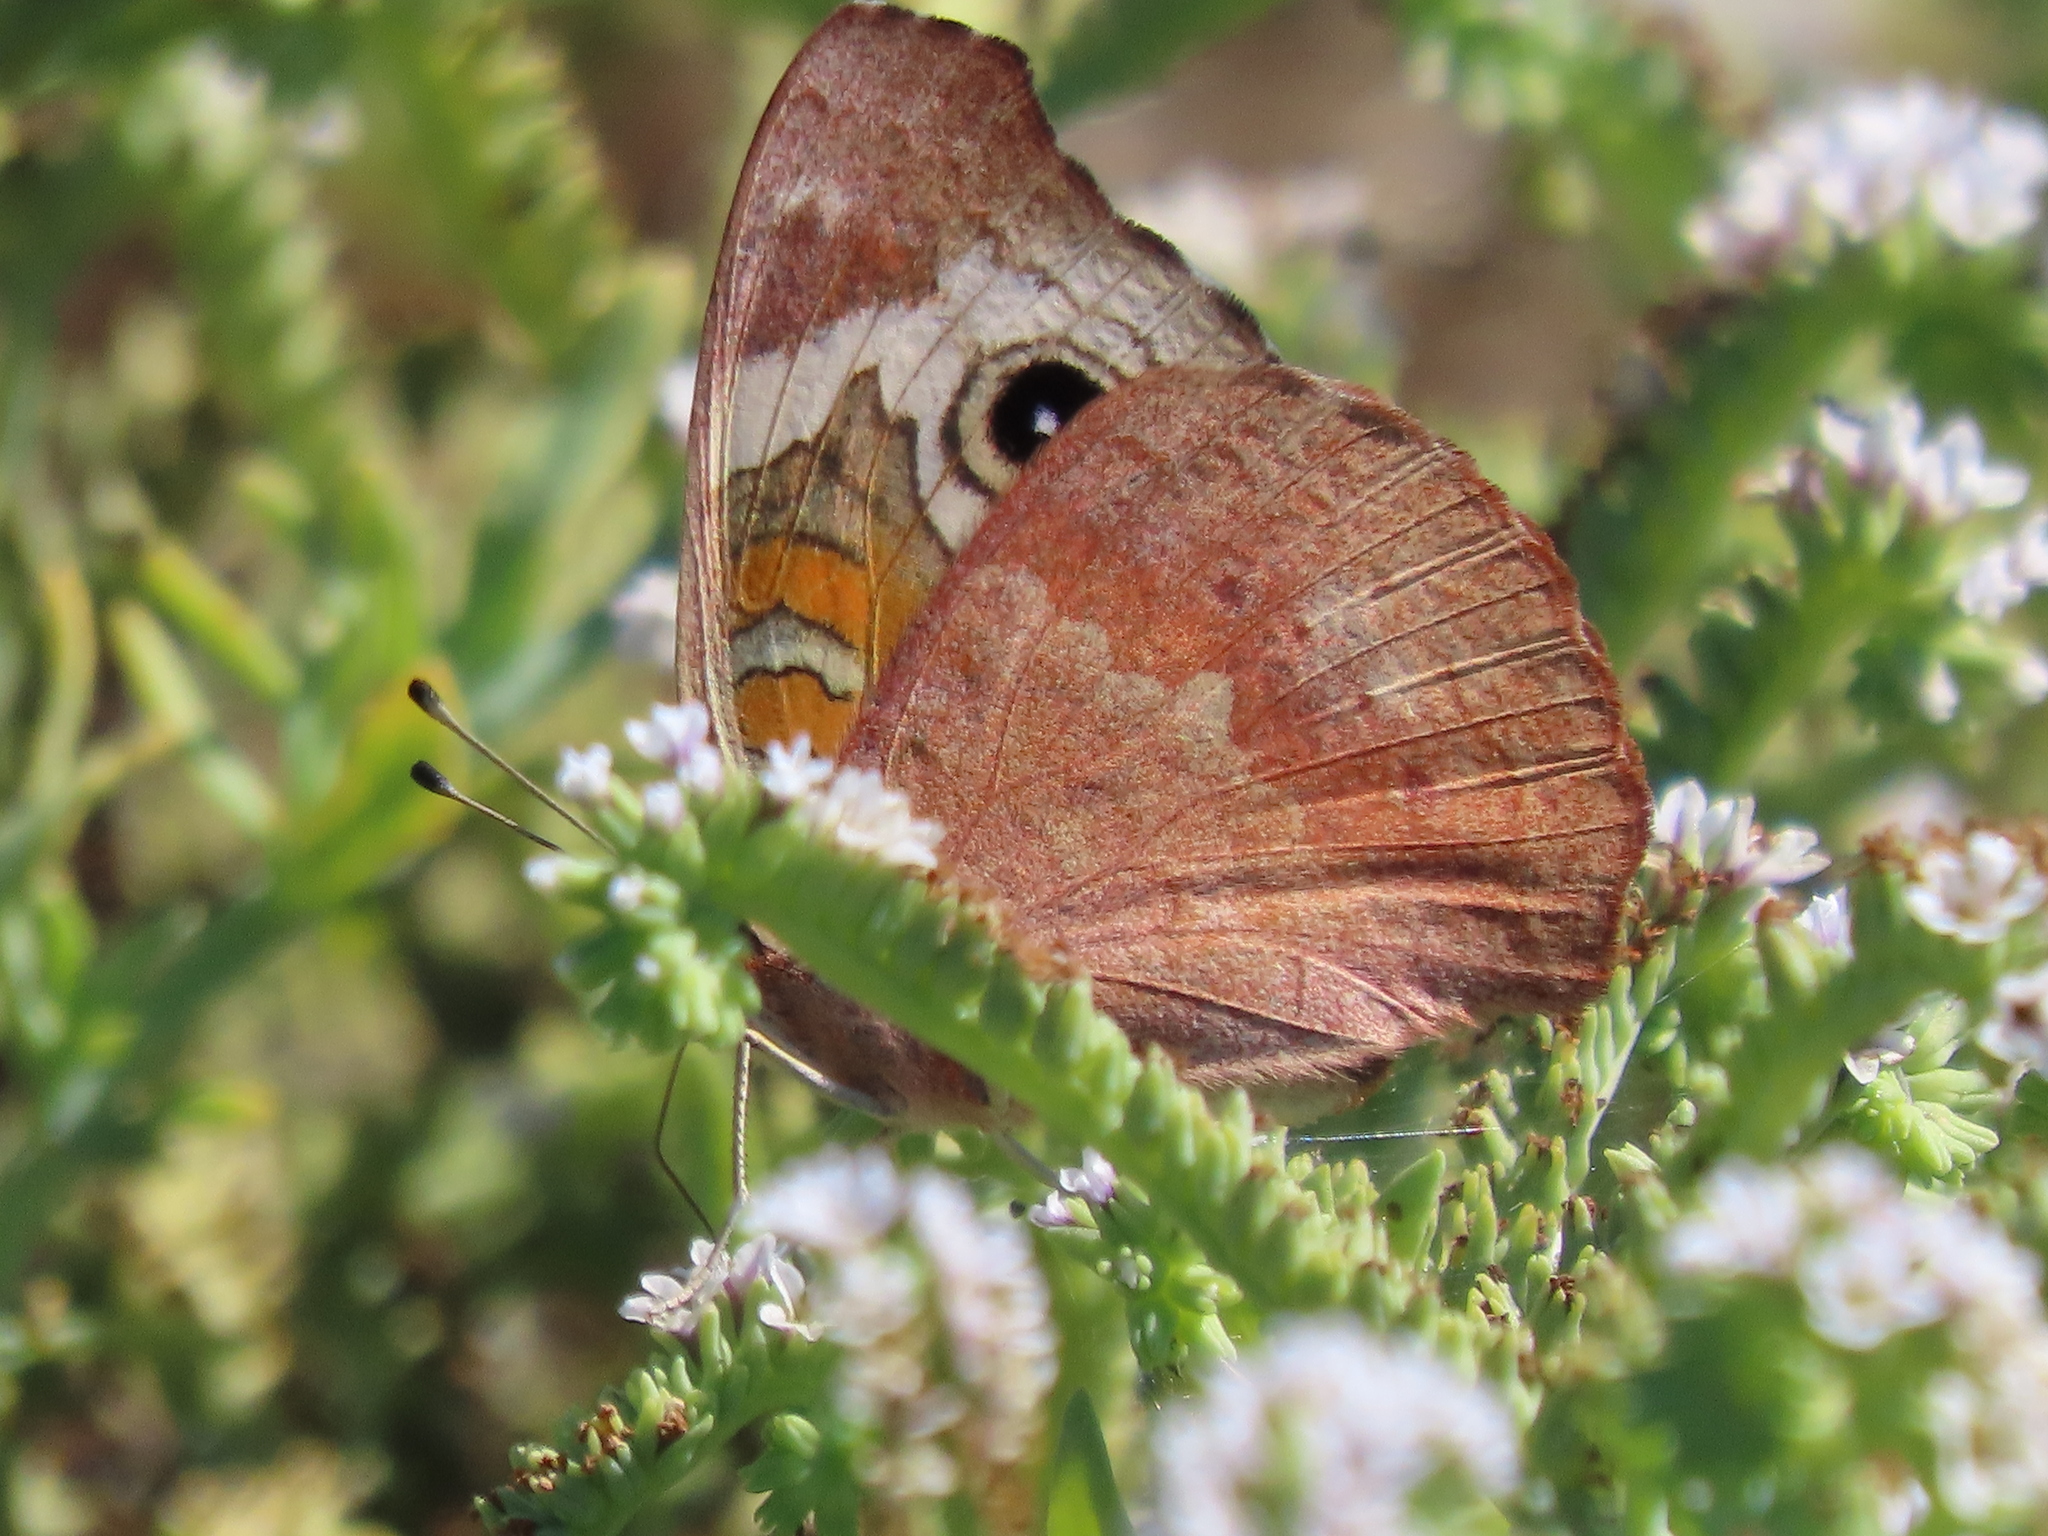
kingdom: Animalia
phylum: Arthropoda
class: Insecta
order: Lepidoptera
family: Nymphalidae
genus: Junonia
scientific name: Junonia grisea
